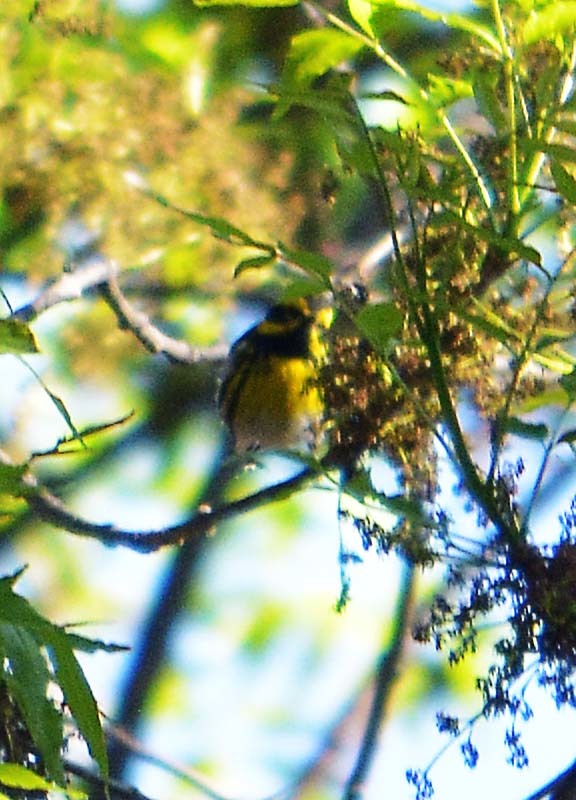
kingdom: Animalia
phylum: Chordata
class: Aves
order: Passeriformes
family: Parulidae
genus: Setophaga
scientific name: Setophaga townsendi
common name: Townsend's warbler
